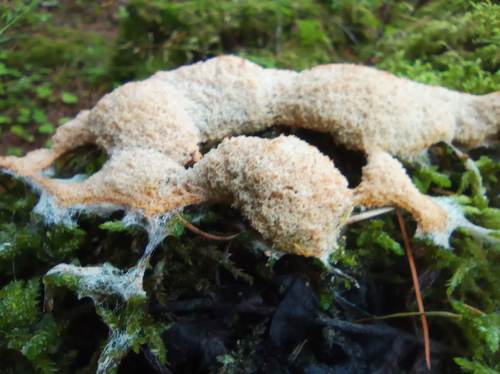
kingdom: Protozoa
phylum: Mycetozoa
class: Myxomycetes
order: Physarales
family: Physaraceae
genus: Fuligo
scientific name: Fuligo septica
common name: Dog vomit slime mold
